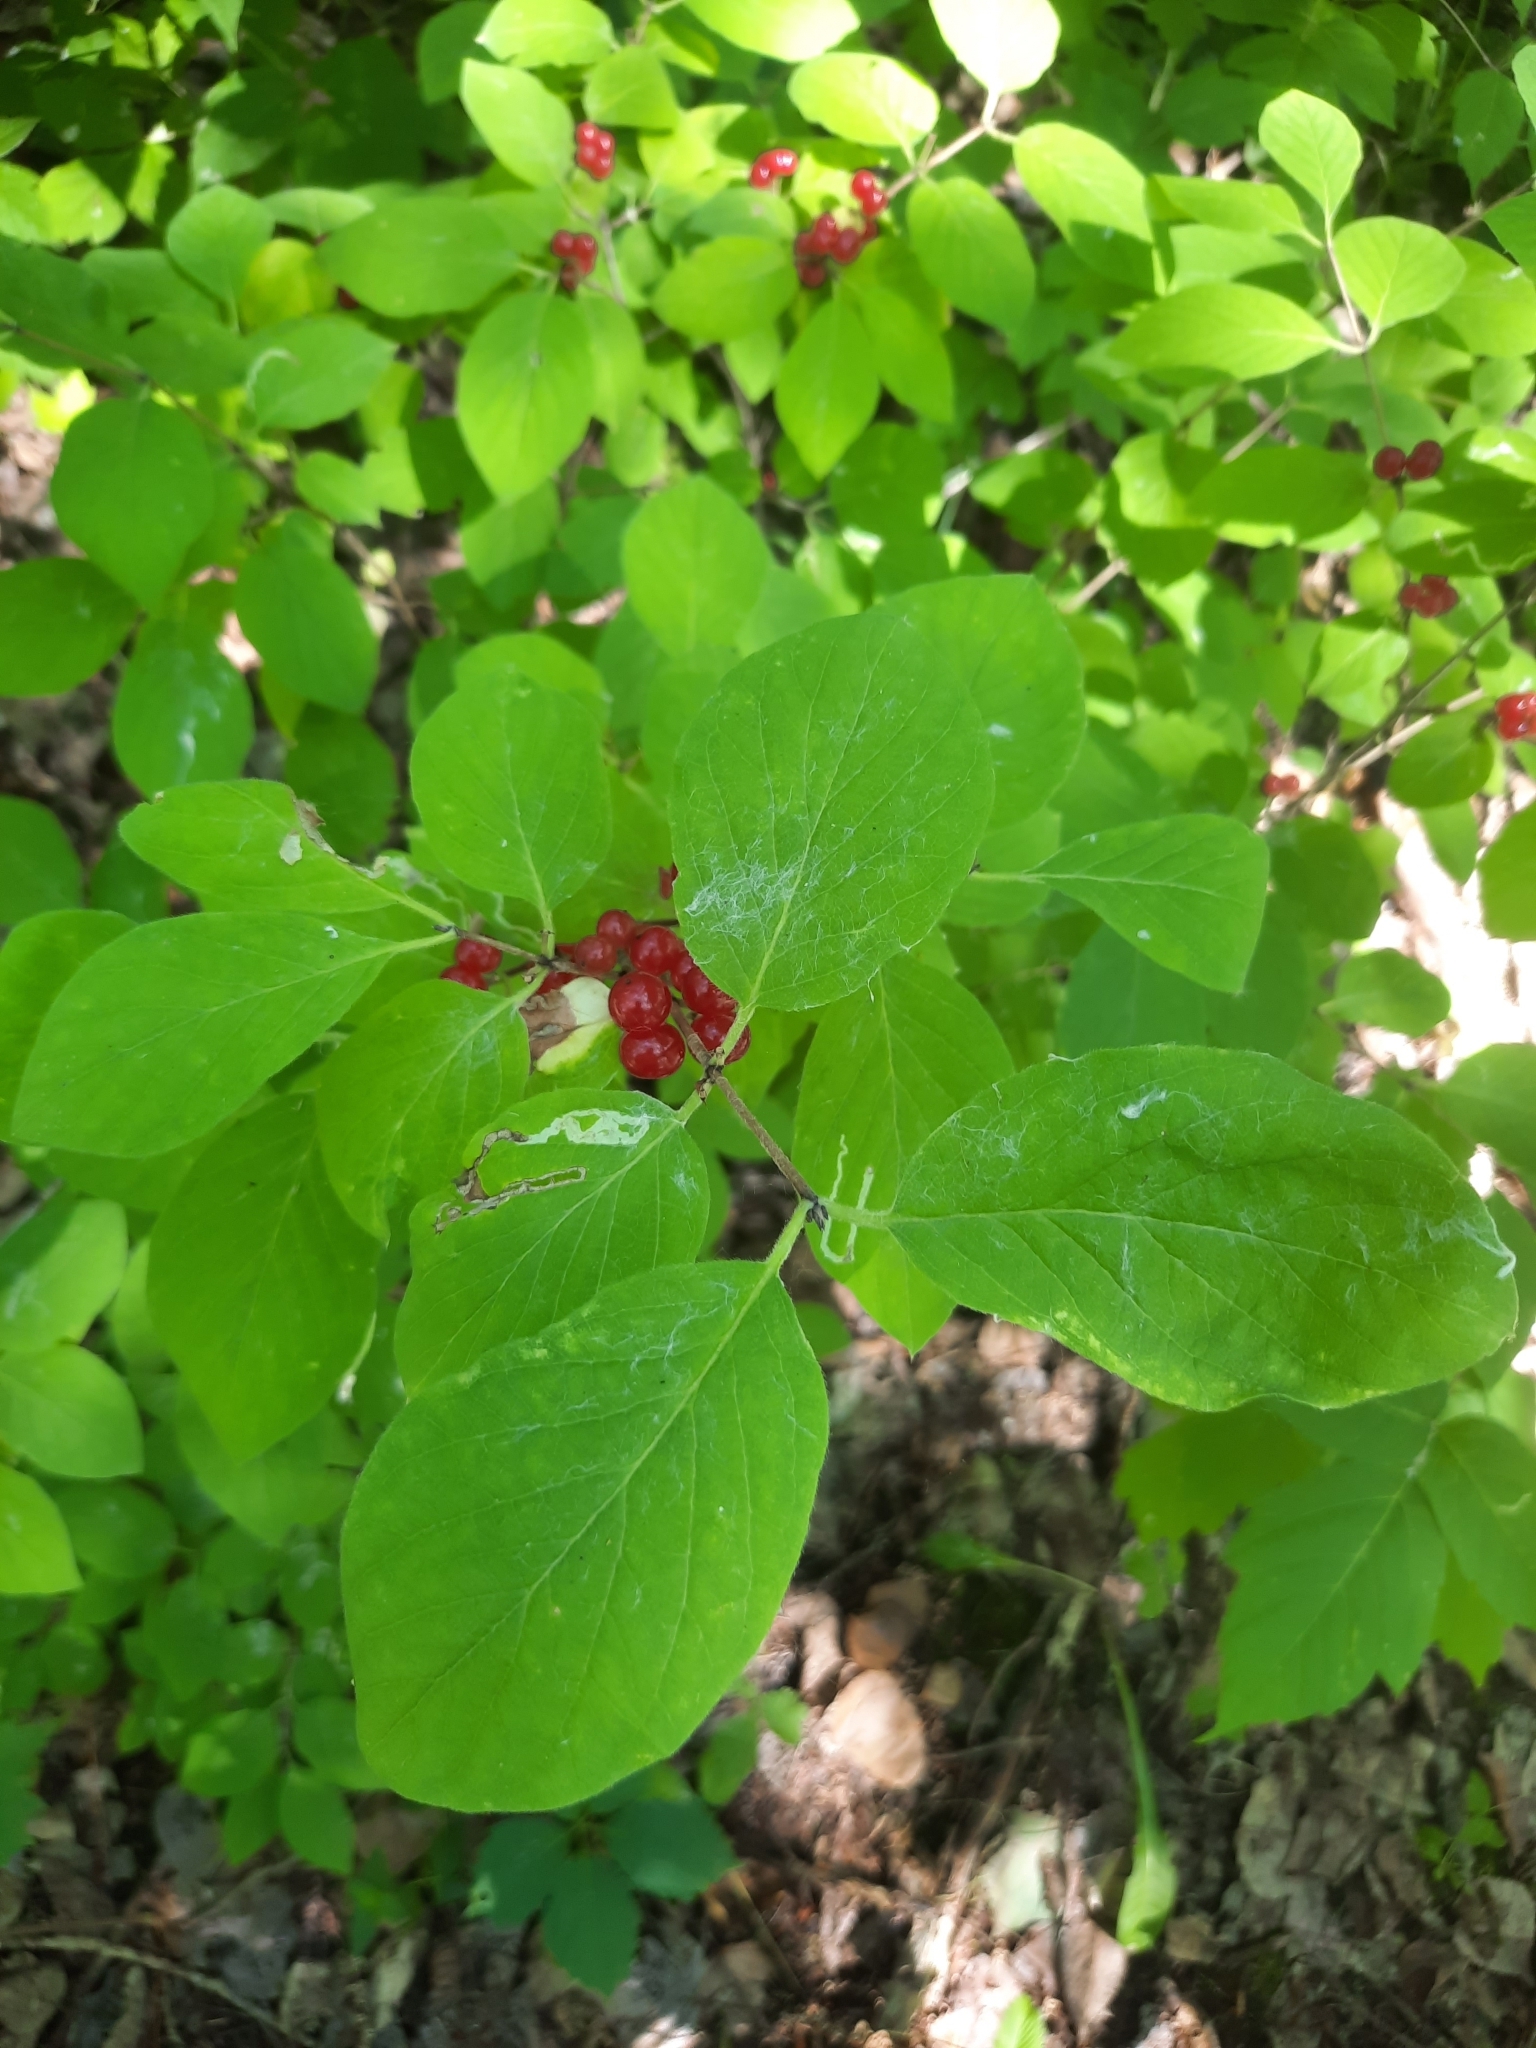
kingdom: Plantae
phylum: Tracheophyta
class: Magnoliopsida
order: Dipsacales
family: Caprifoliaceae
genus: Lonicera
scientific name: Lonicera xylosteum
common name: Fly honeysuckle
